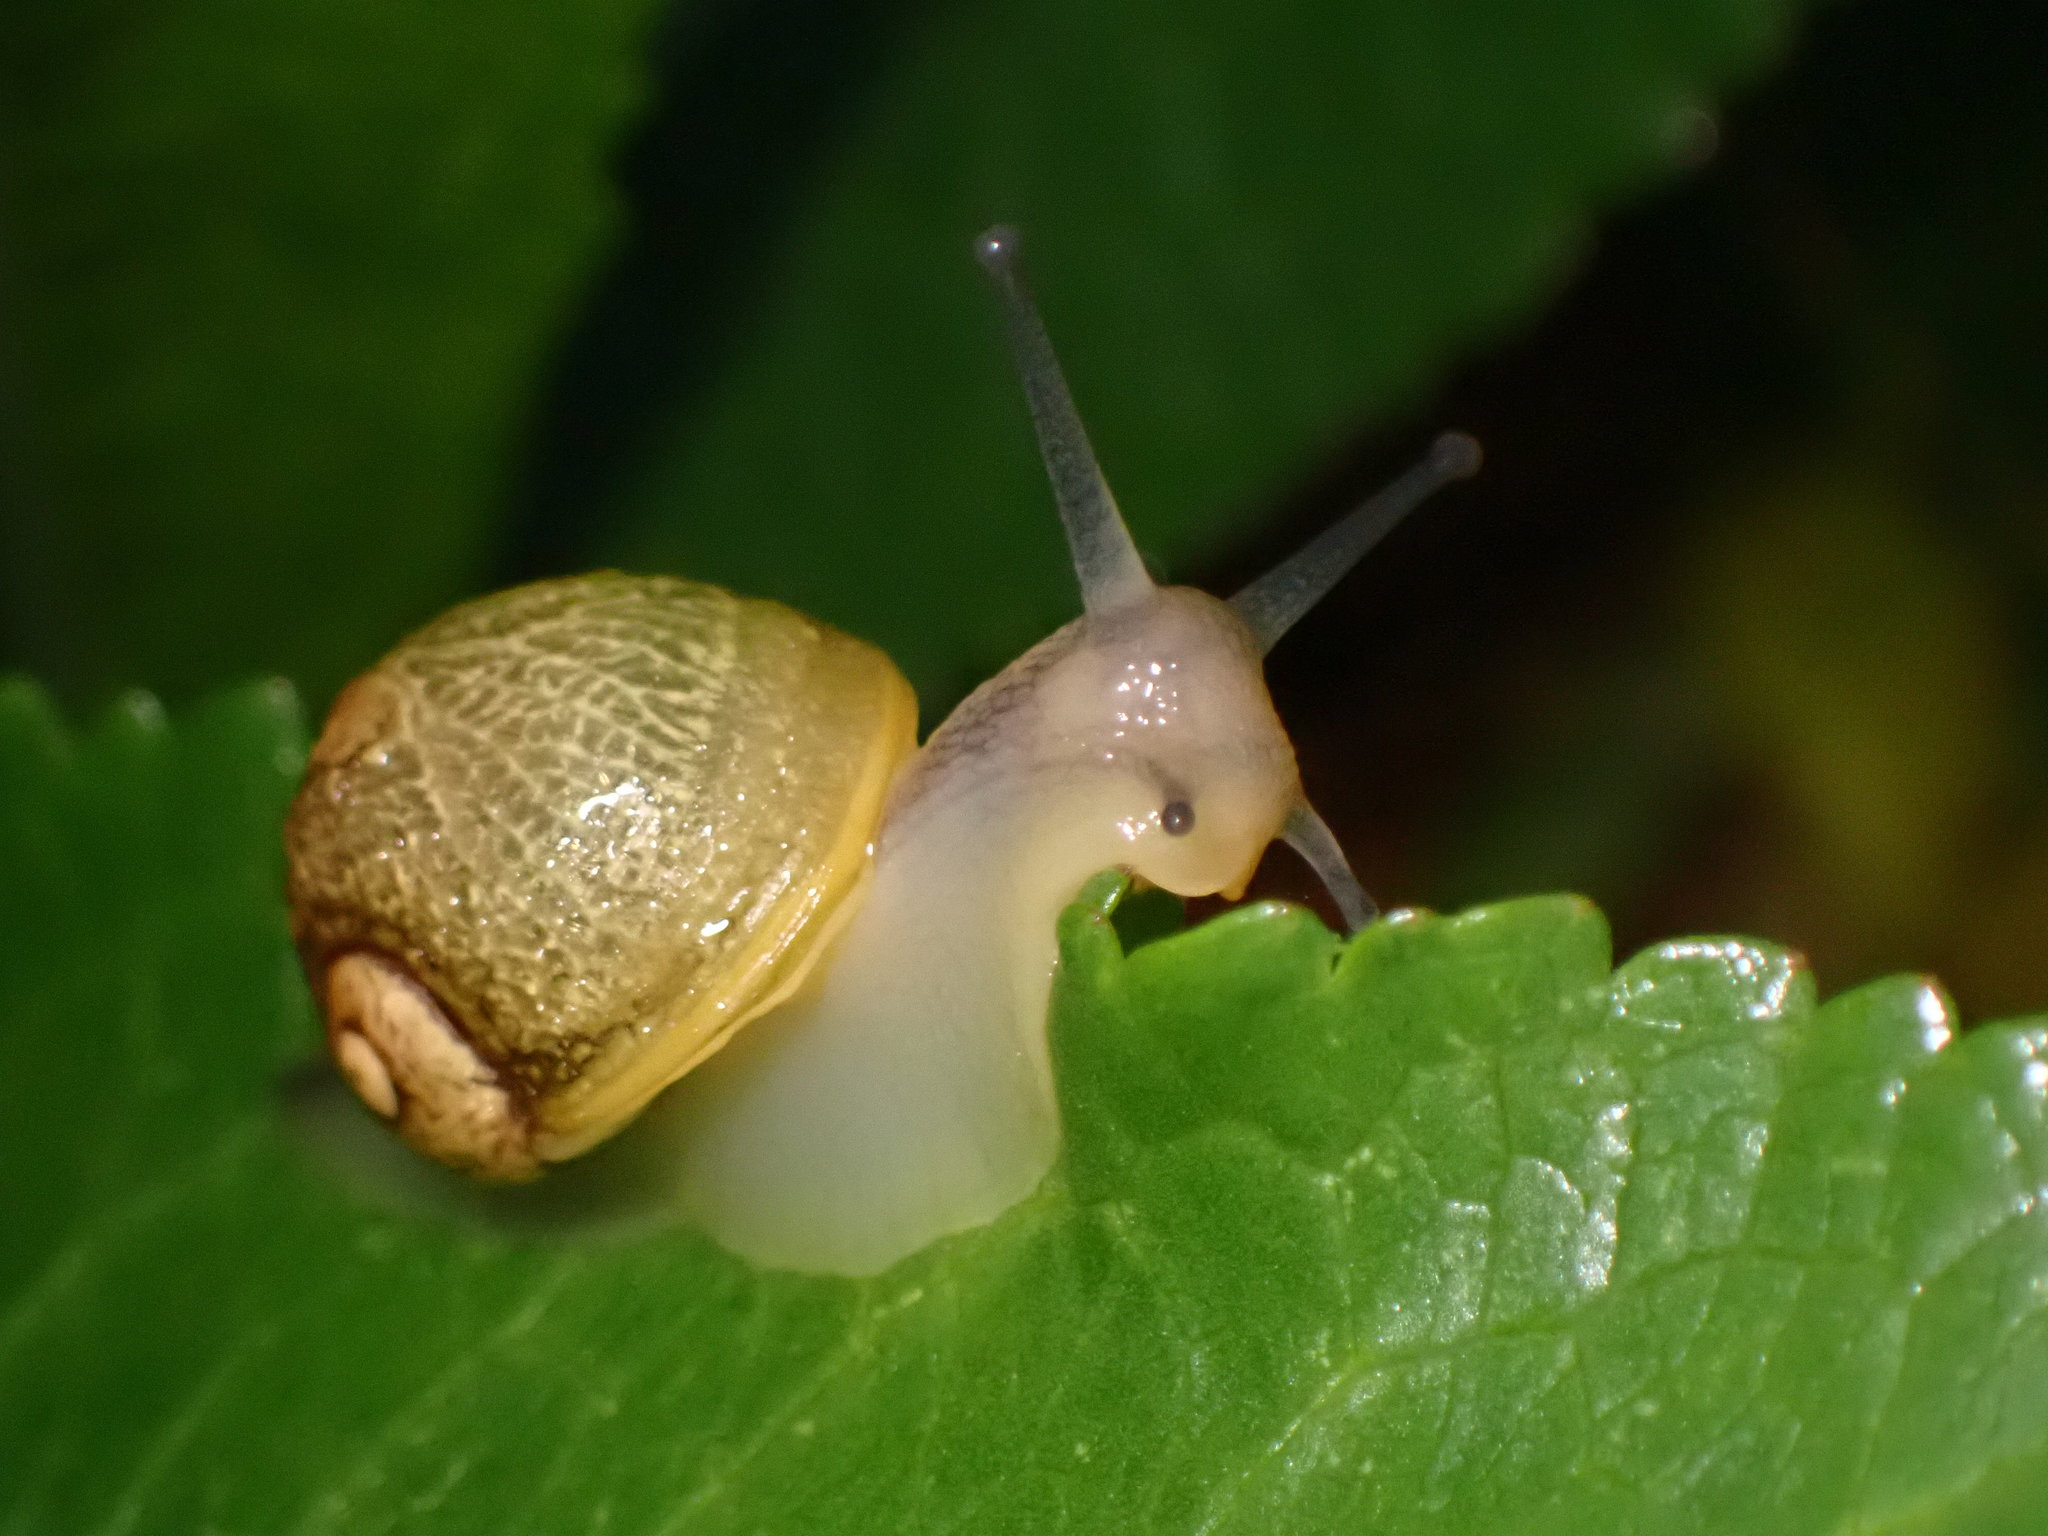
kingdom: Animalia
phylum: Mollusca
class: Gastropoda
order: Stylommatophora
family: Helicidae
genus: Cantareus
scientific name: Cantareus apertus
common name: Green gardensnail
